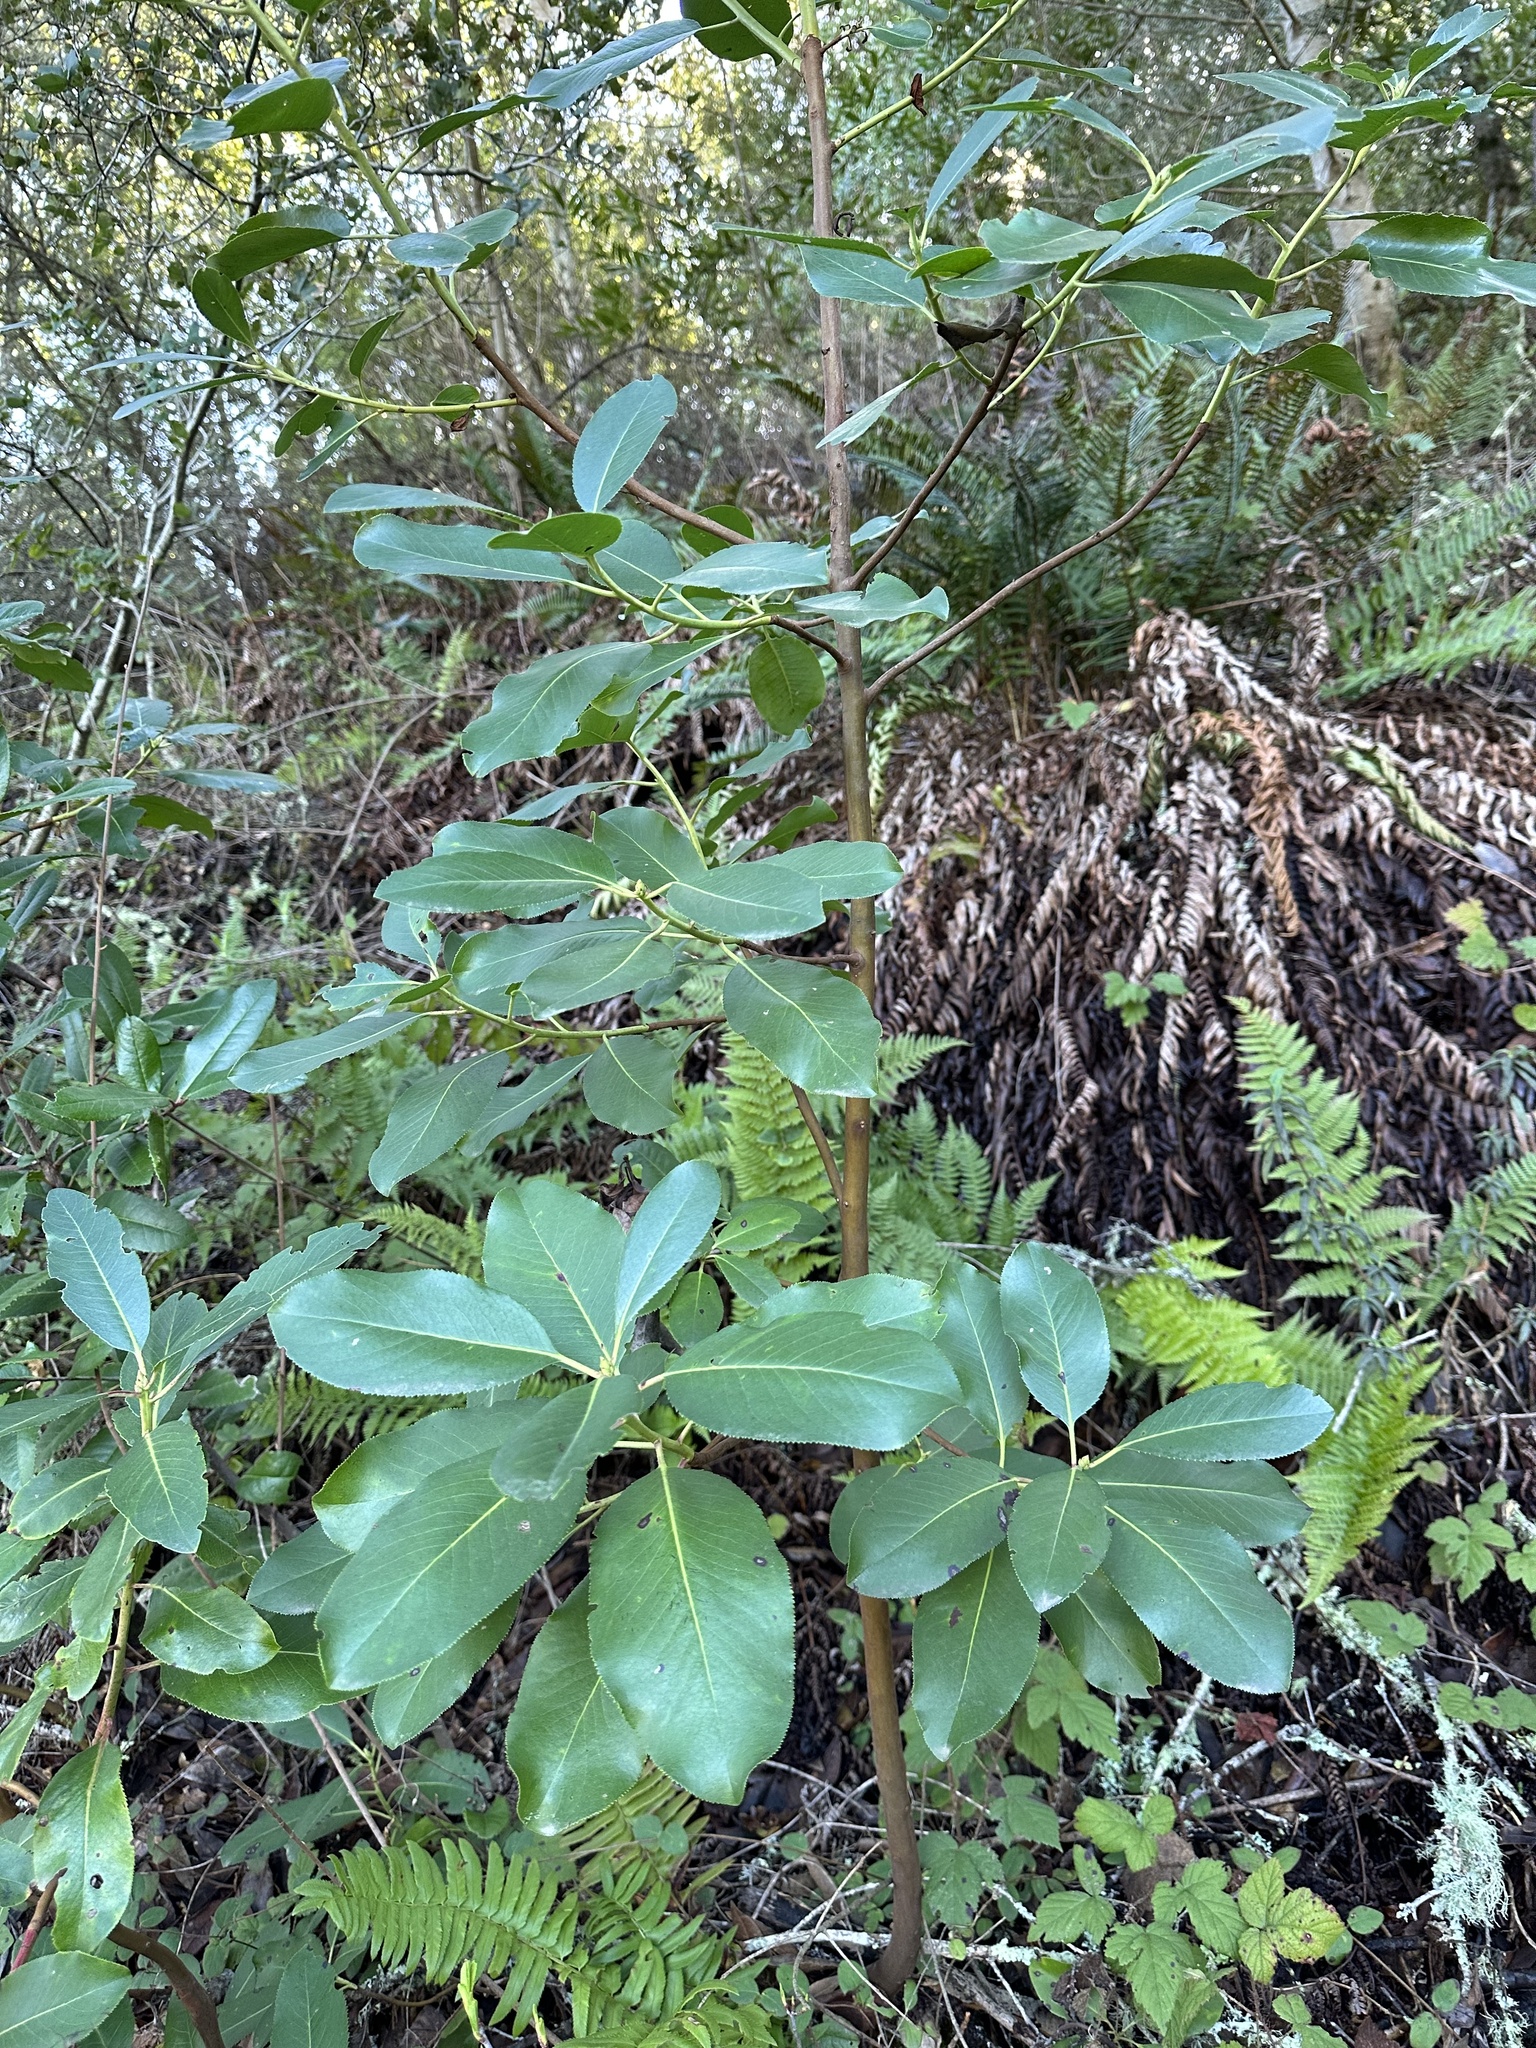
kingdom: Plantae
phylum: Tracheophyta
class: Magnoliopsida
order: Ericales
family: Ericaceae
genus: Arbutus
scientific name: Arbutus menziesii
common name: Pacific madrone
